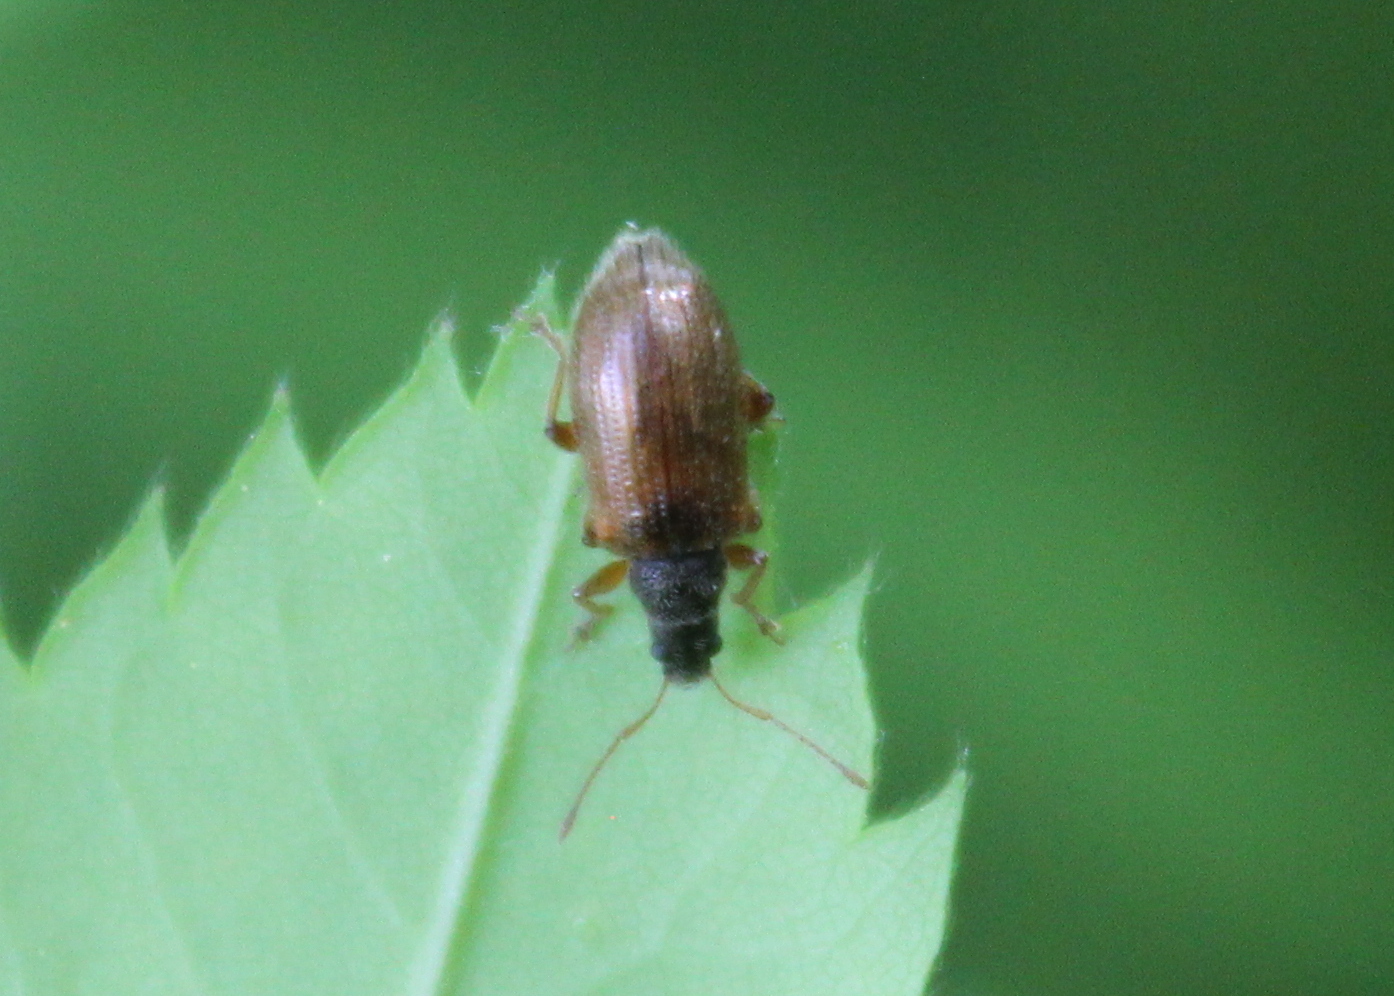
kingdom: Animalia
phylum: Arthropoda
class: Insecta
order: Coleoptera
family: Curculionidae
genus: Phyllobius
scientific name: Phyllobius oblongus
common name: Brown leaf weevil
